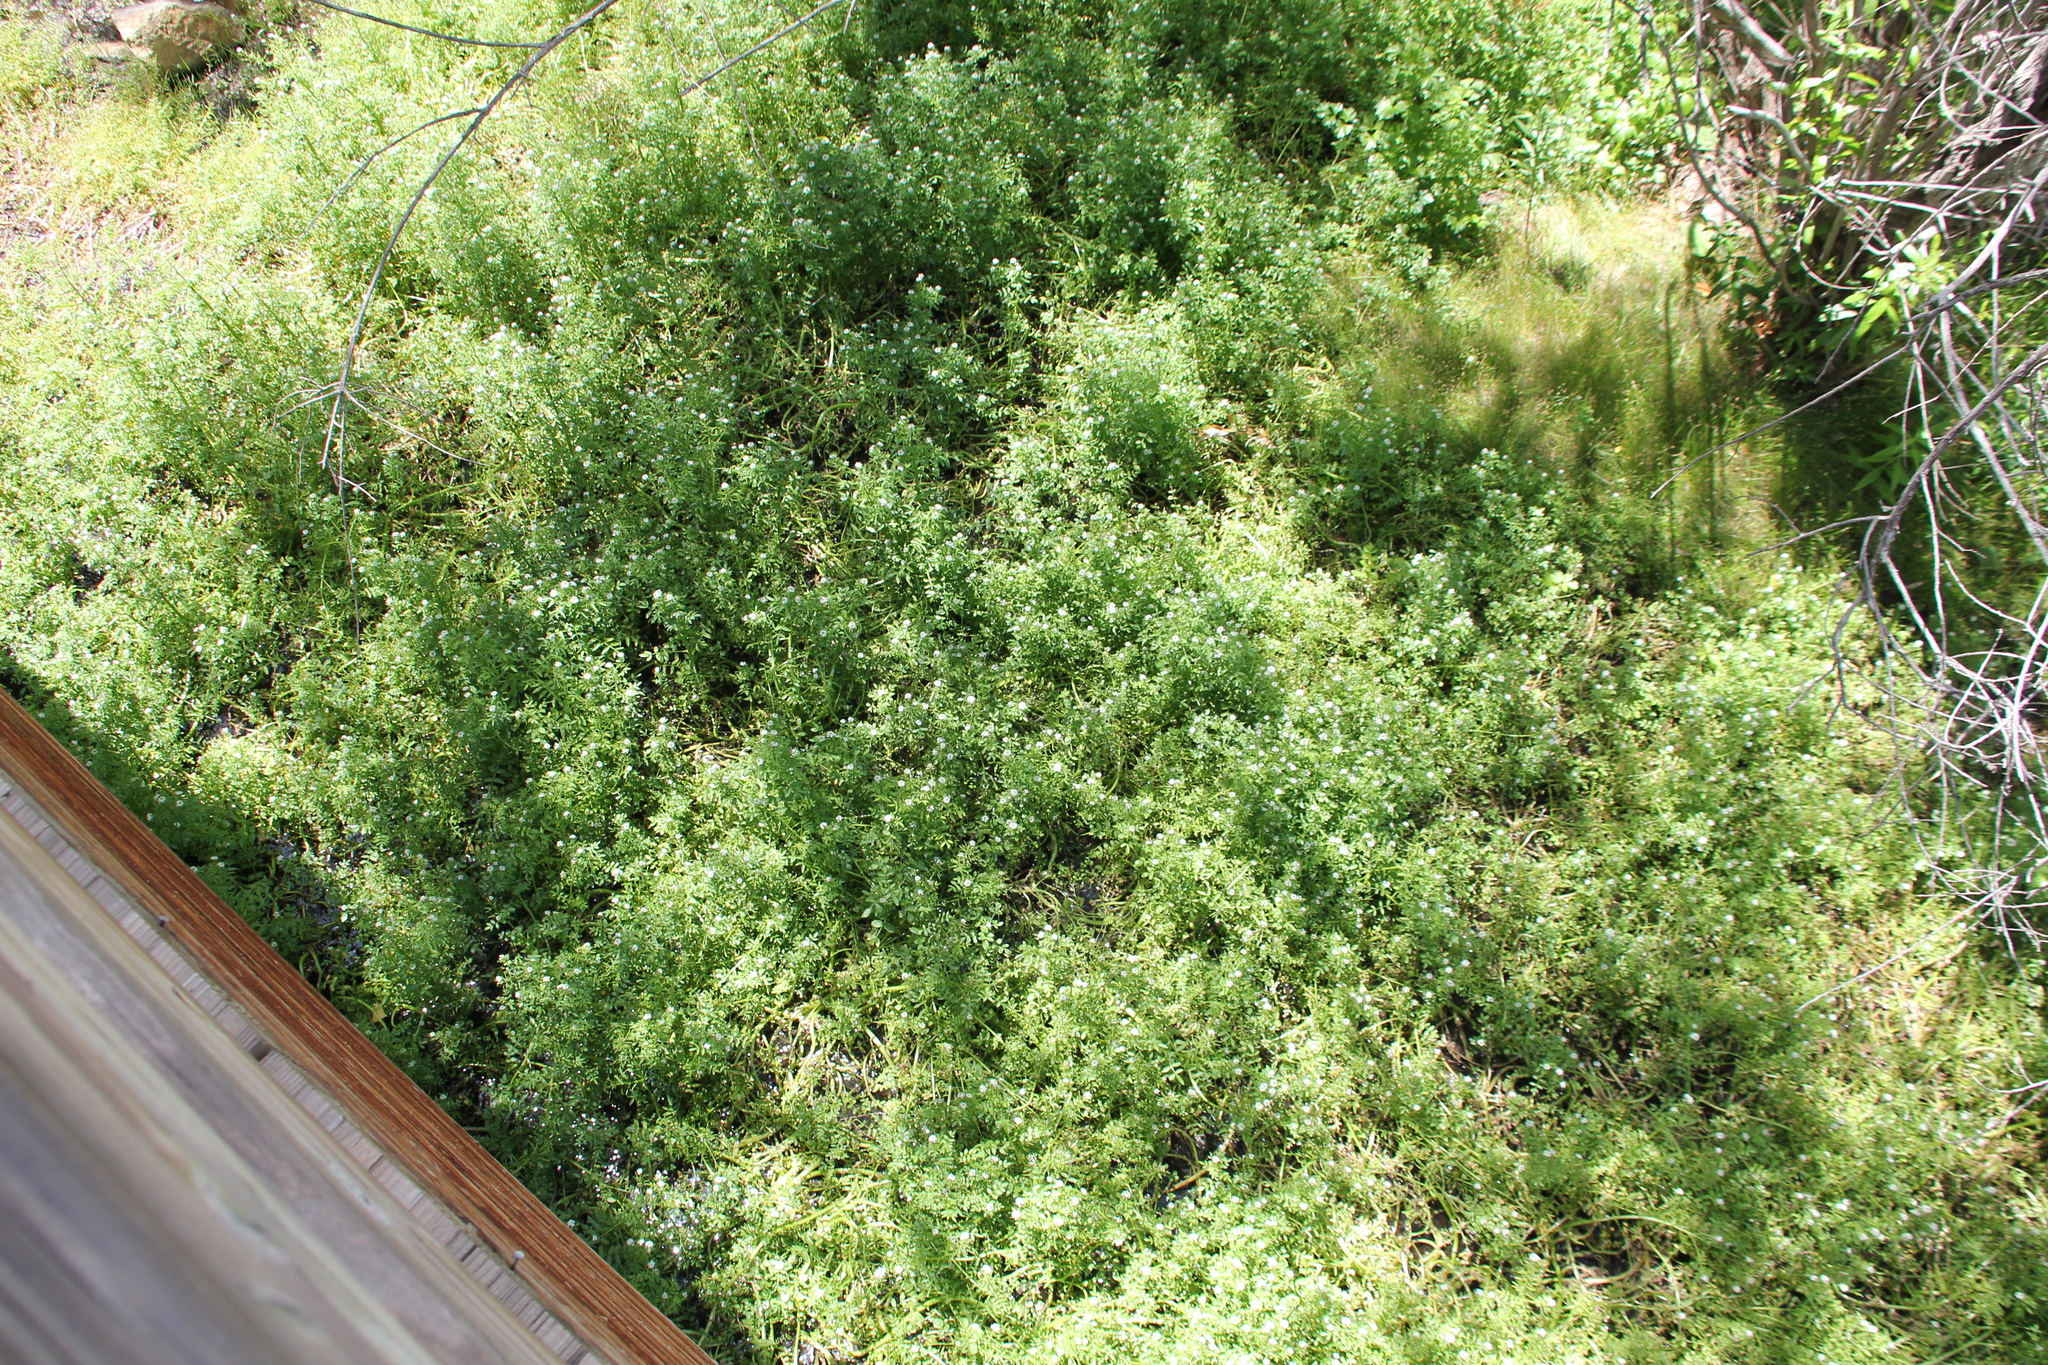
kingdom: Plantae
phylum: Tracheophyta
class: Magnoliopsida
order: Brassicales
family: Brassicaceae
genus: Nasturtium
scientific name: Nasturtium officinale
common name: Watercress
